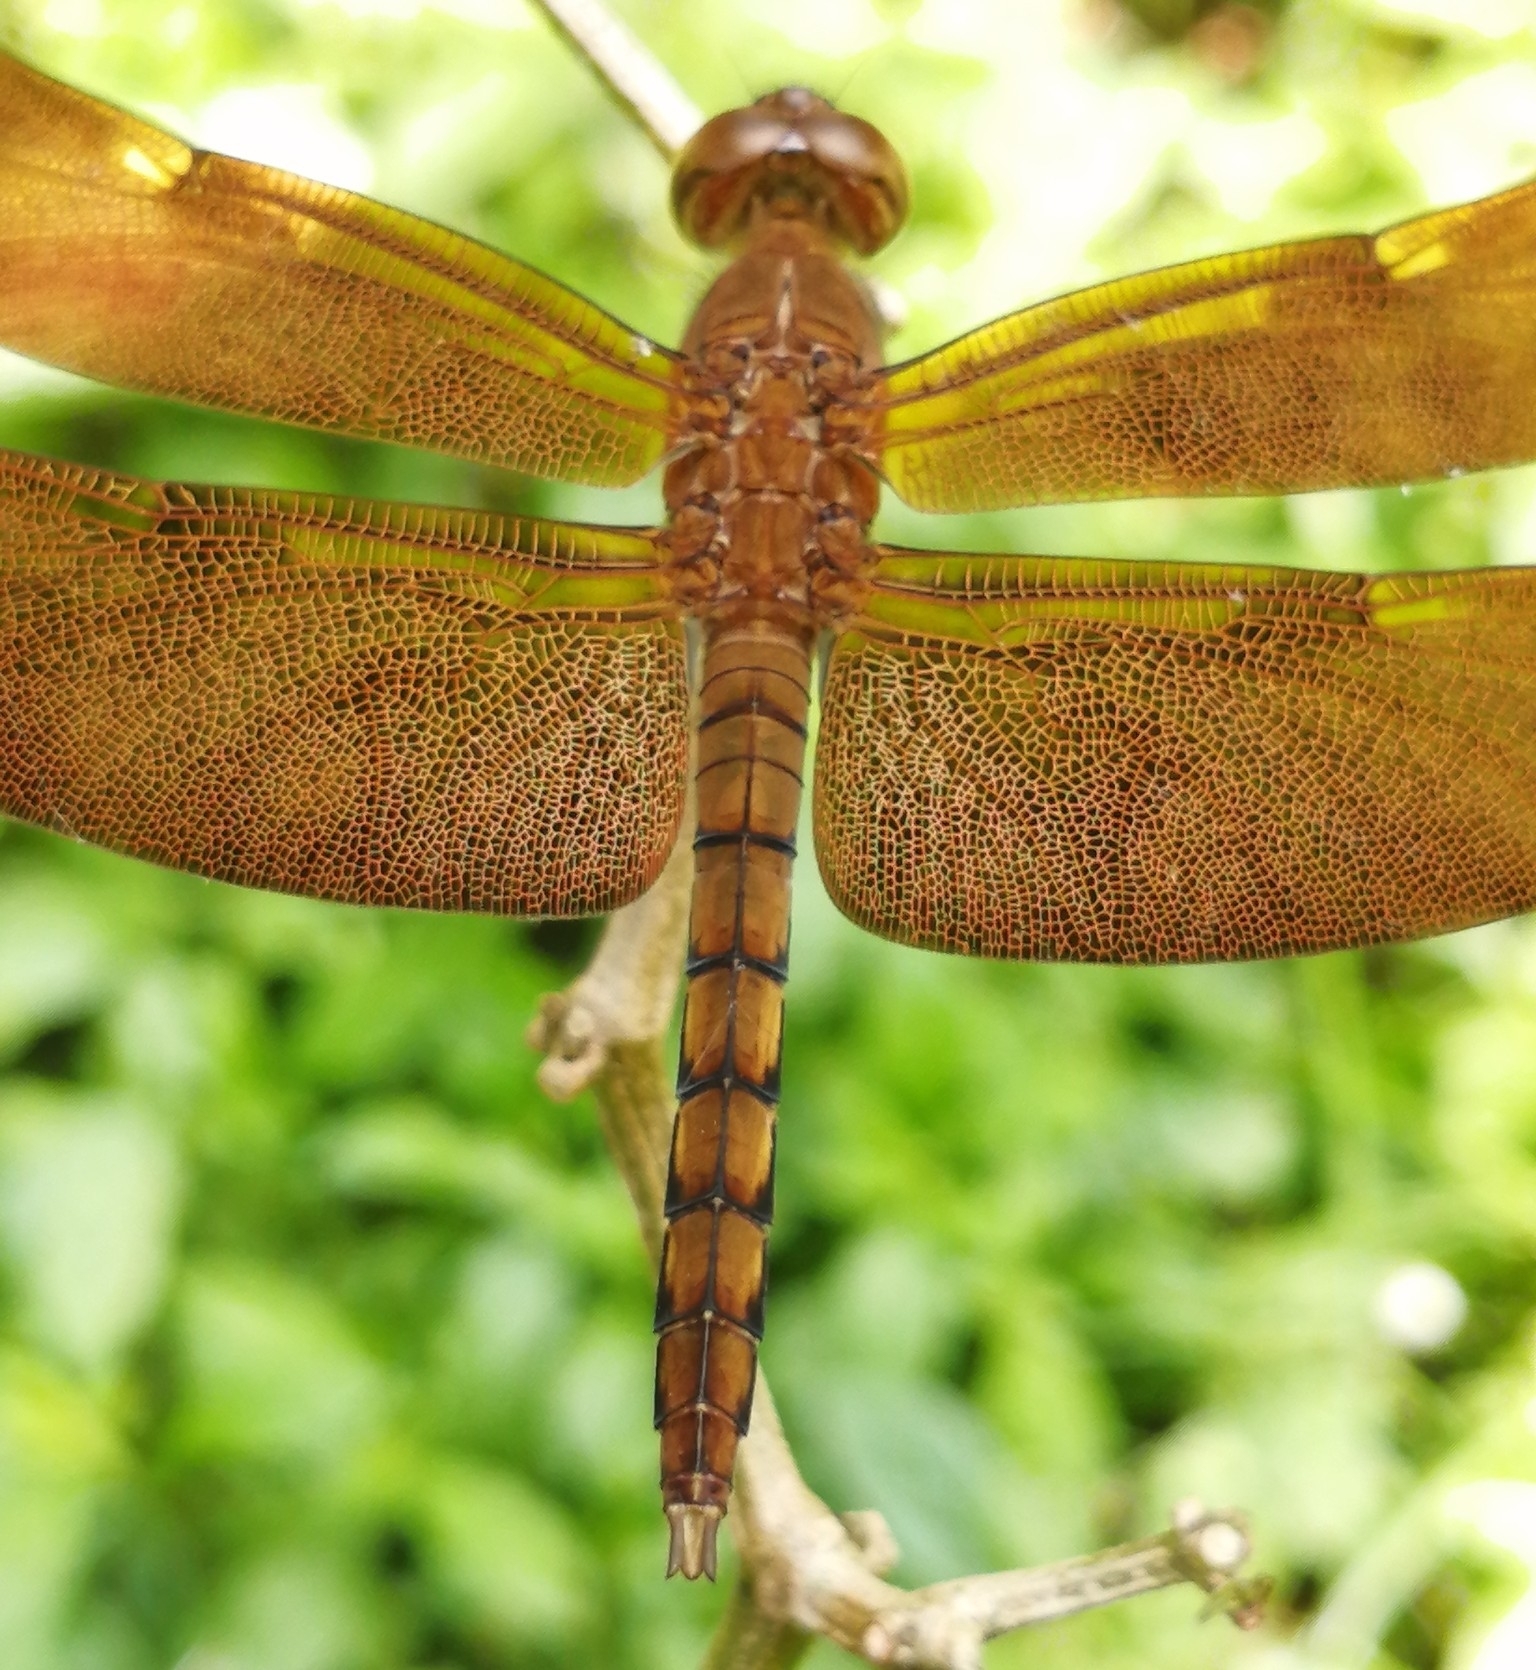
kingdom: Animalia
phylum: Arthropoda
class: Insecta
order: Odonata
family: Libellulidae
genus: Neurothemis
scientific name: Neurothemis fulvia
